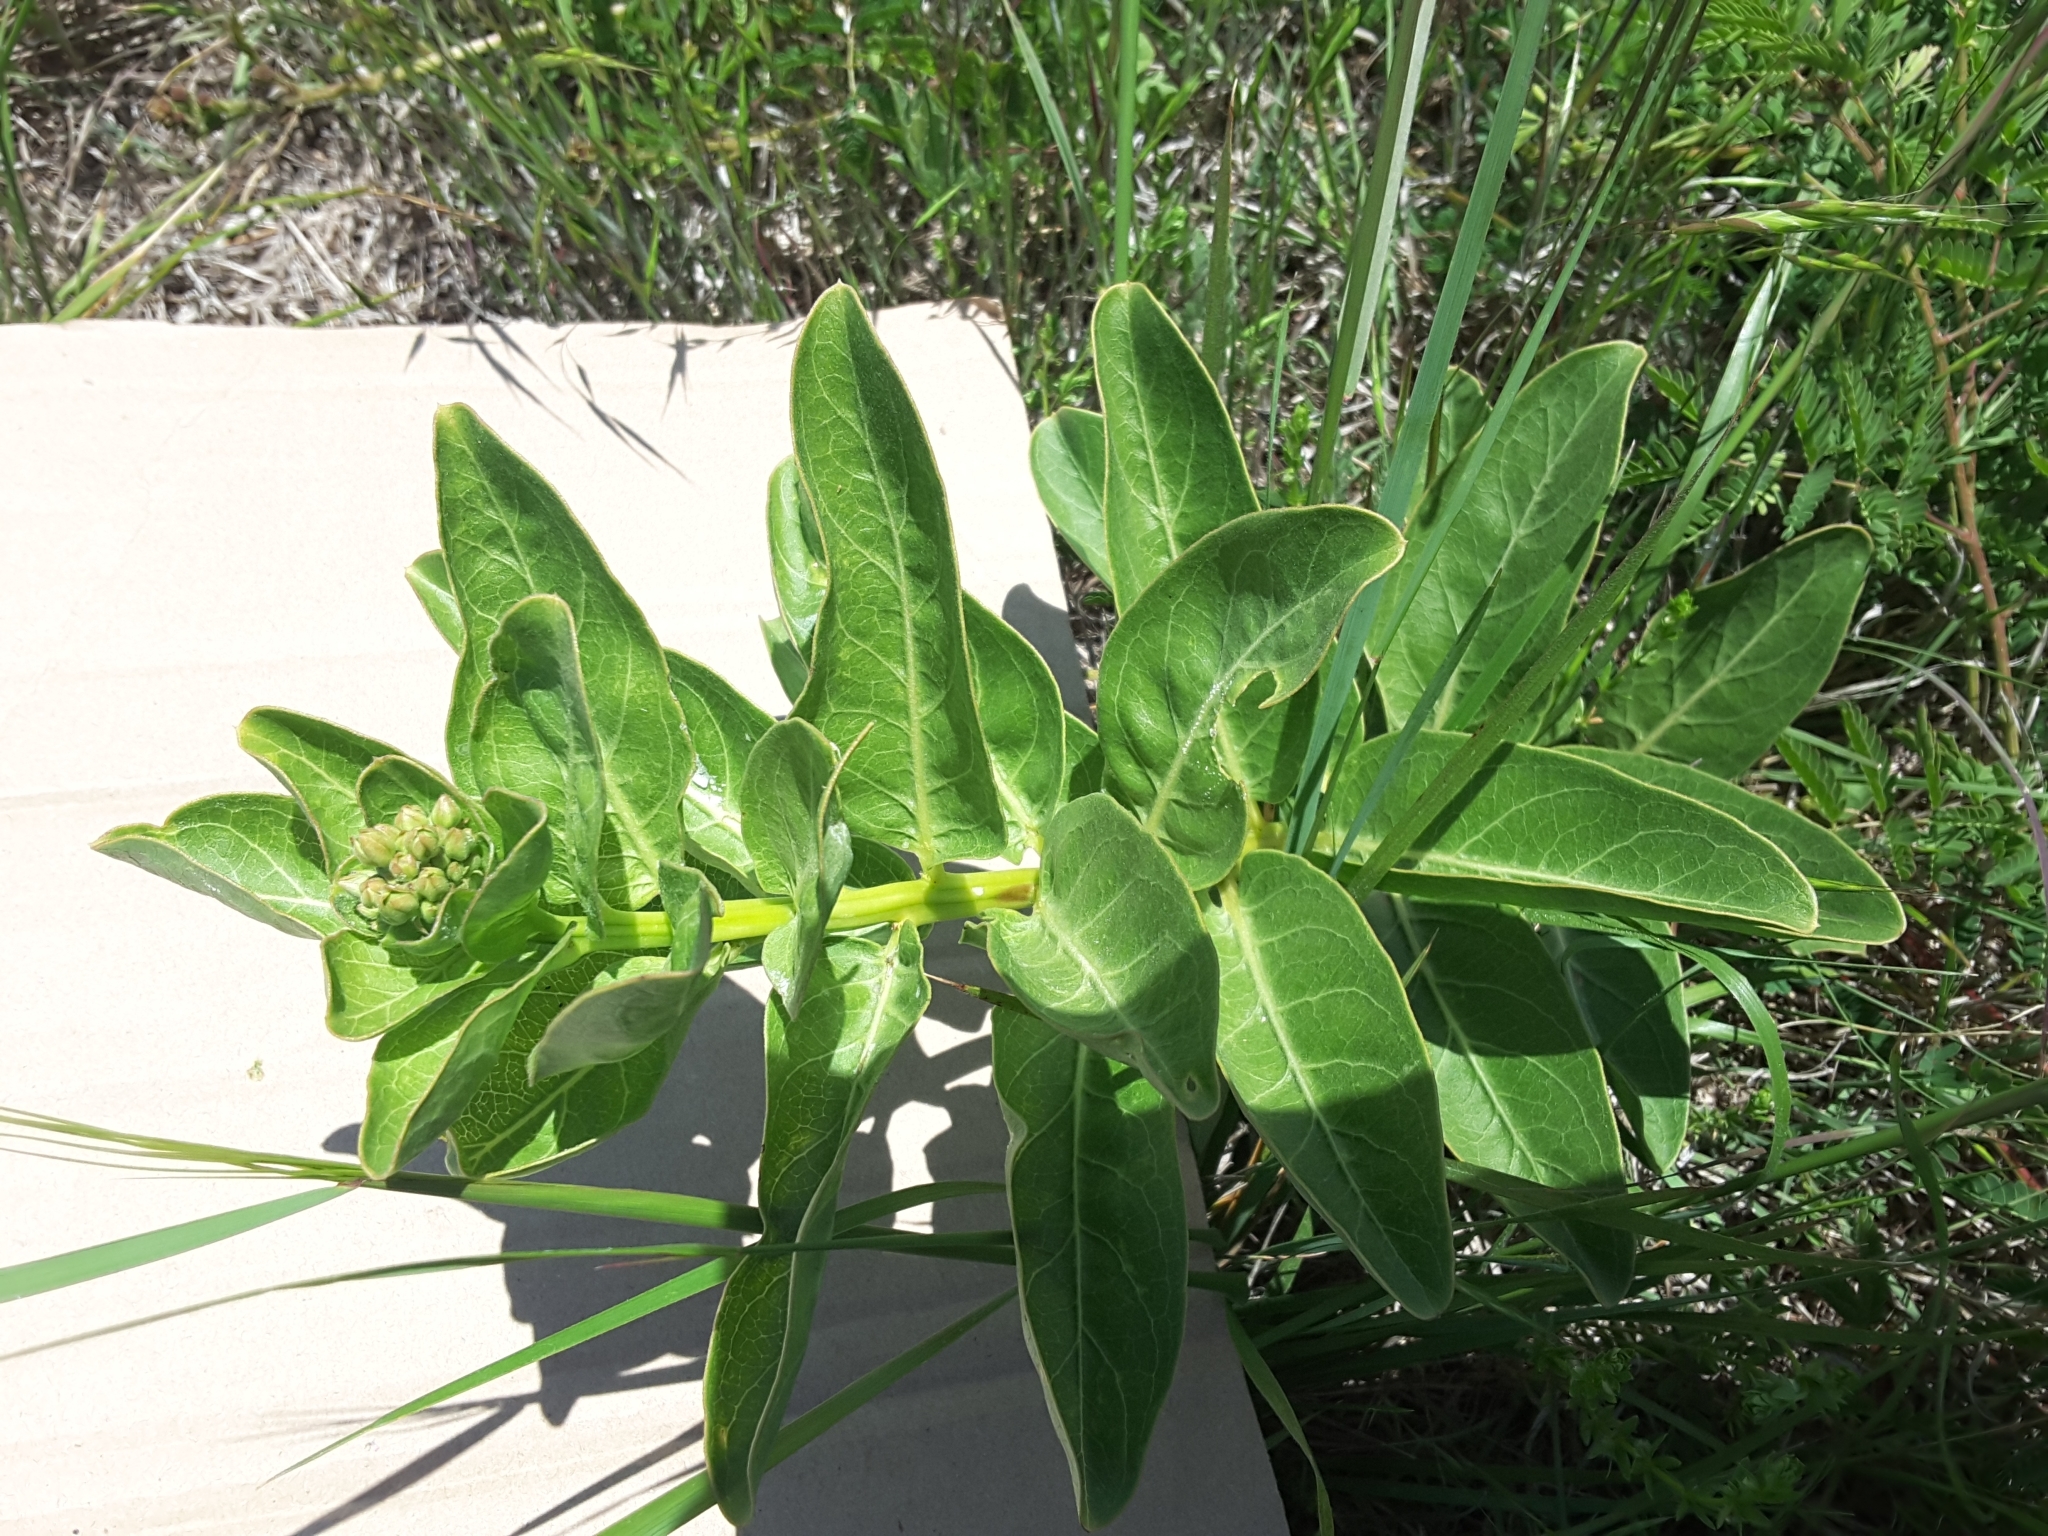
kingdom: Plantae
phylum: Tracheophyta
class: Magnoliopsida
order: Gentianales
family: Apocynaceae
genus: Asclepias
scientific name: Asclepias viridis
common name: Antelope-horns
